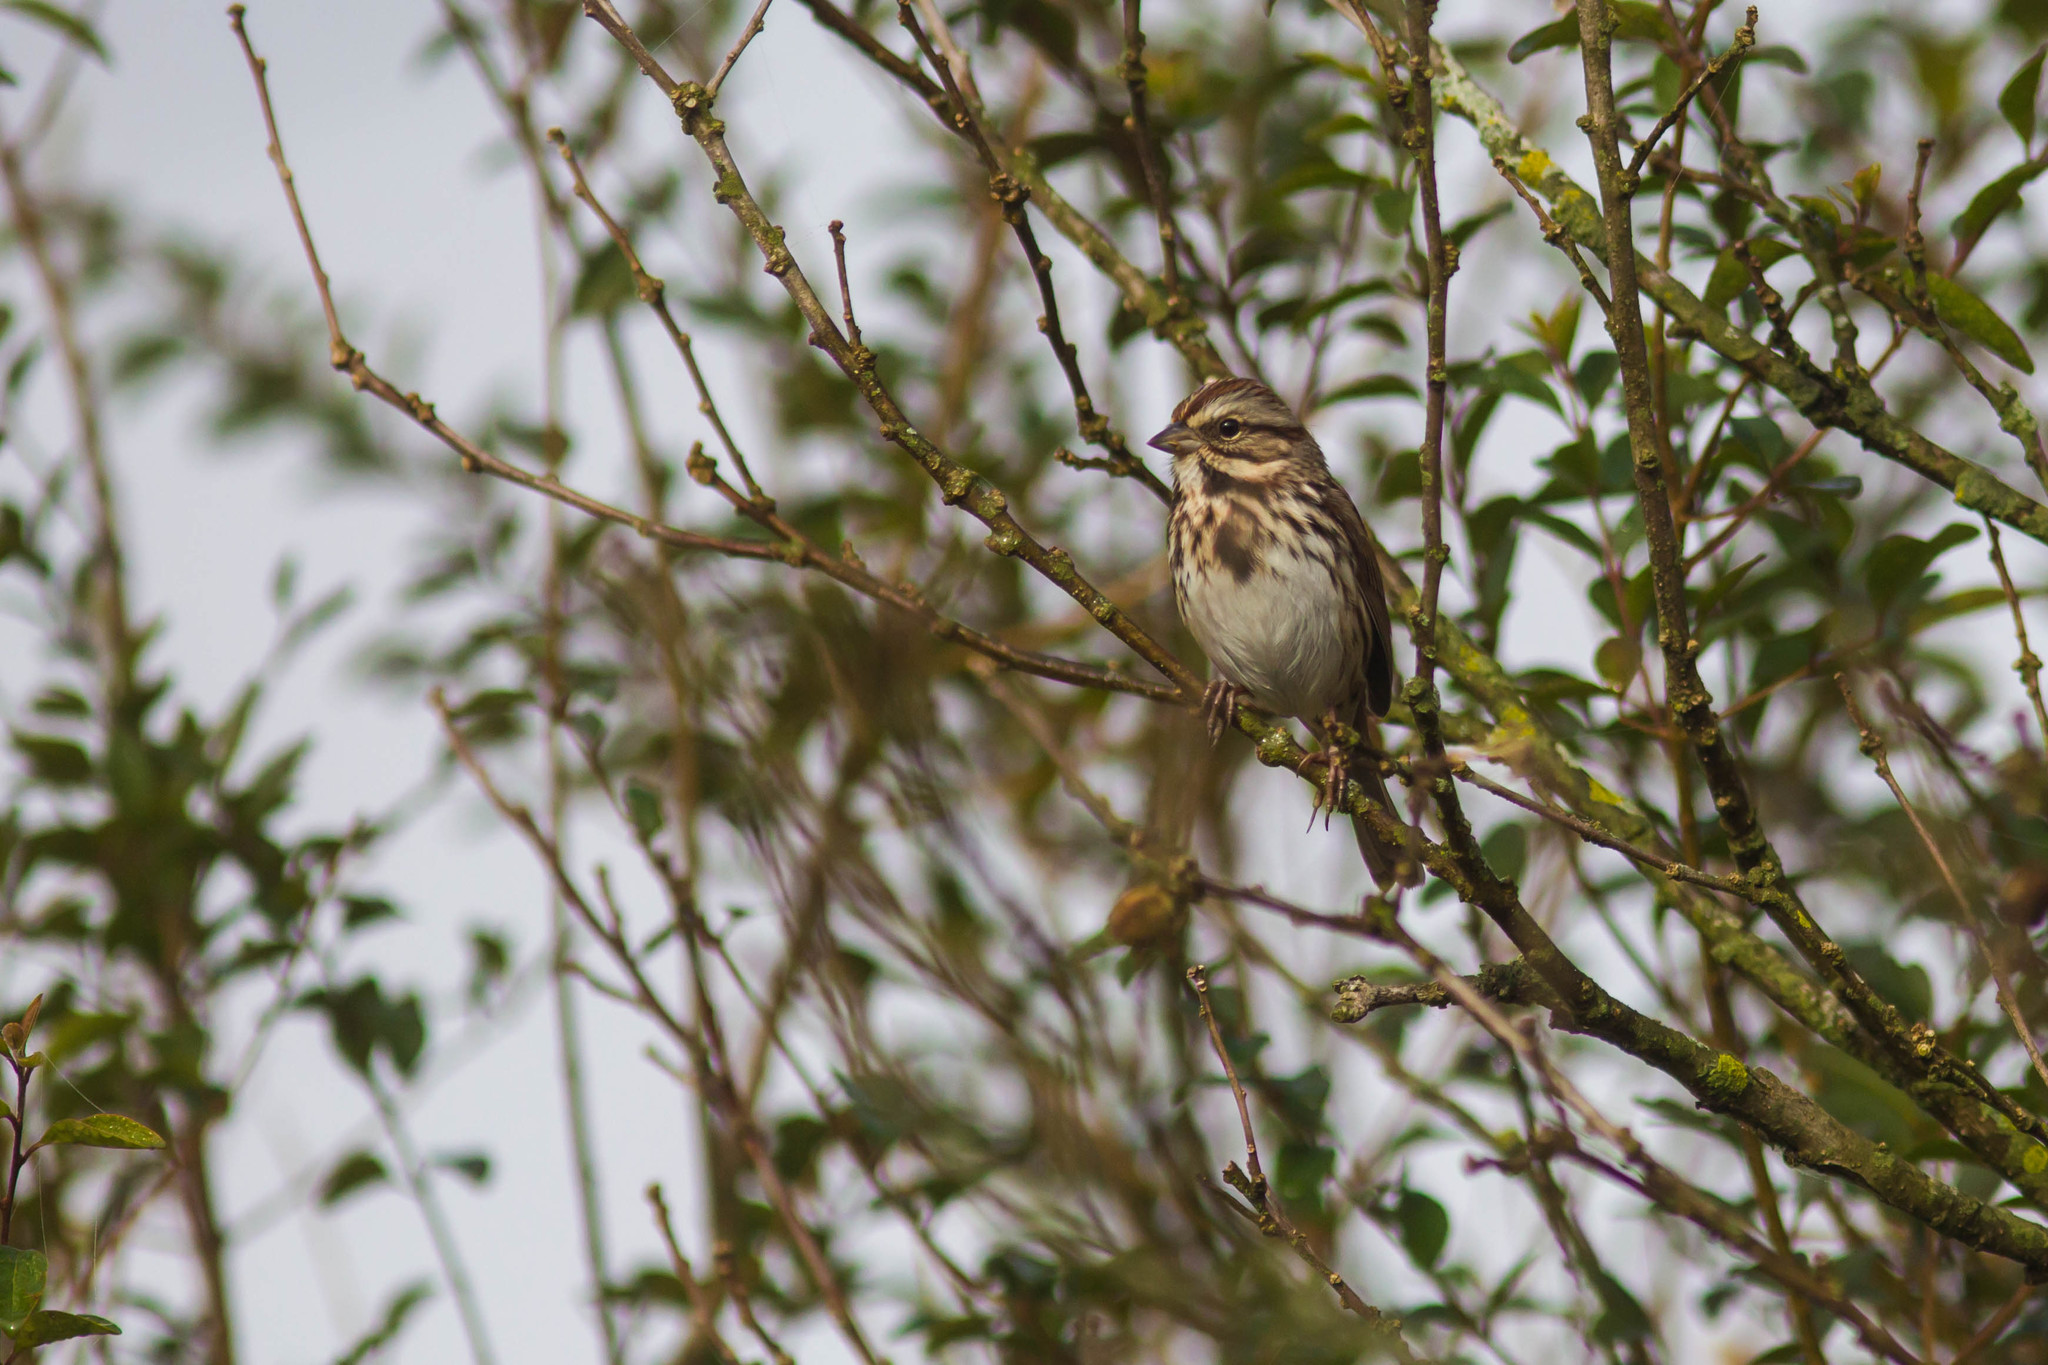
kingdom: Animalia
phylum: Chordata
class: Aves
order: Passeriformes
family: Passerellidae
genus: Melospiza
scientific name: Melospiza melodia
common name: Song sparrow
